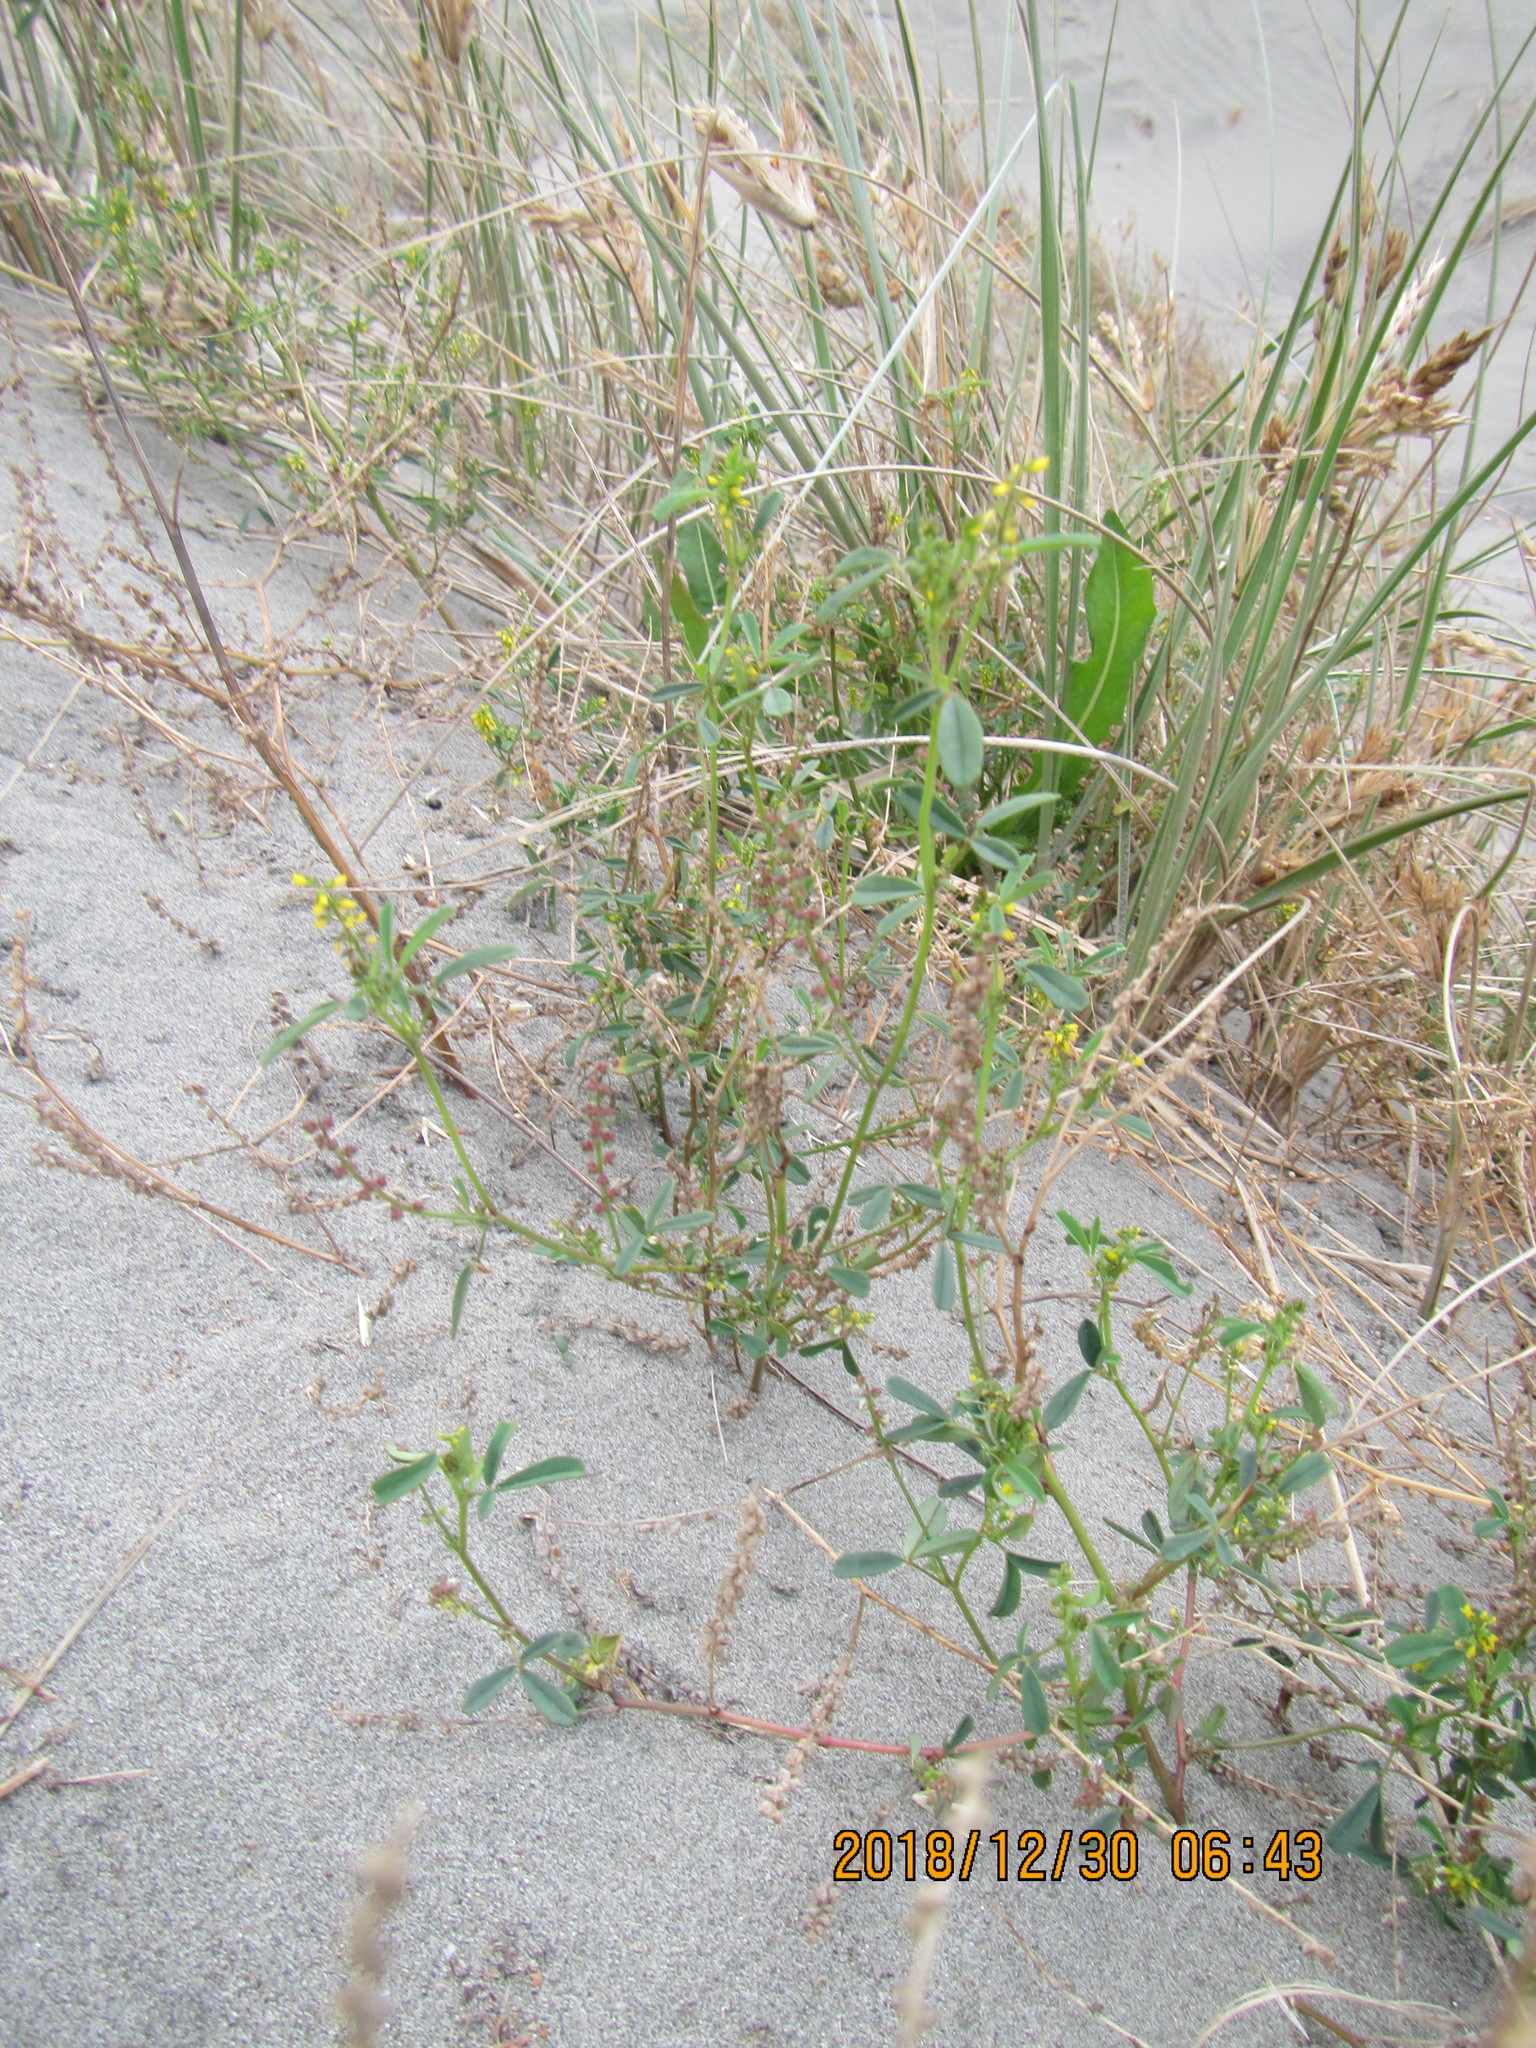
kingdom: Plantae
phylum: Tracheophyta
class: Magnoliopsida
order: Fabales
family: Fabaceae
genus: Melilotus
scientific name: Melilotus indicus
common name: Small melilot
